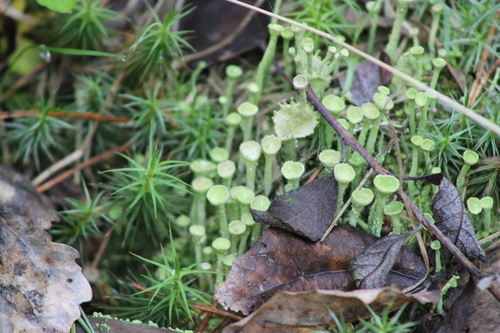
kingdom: Fungi
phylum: Ascomycota
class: Lecanoromycetes
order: Lecanorales
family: Cladoniaceae
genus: Cladonia
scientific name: Cladonia fimbriata
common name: Powdered trumpet lichen
